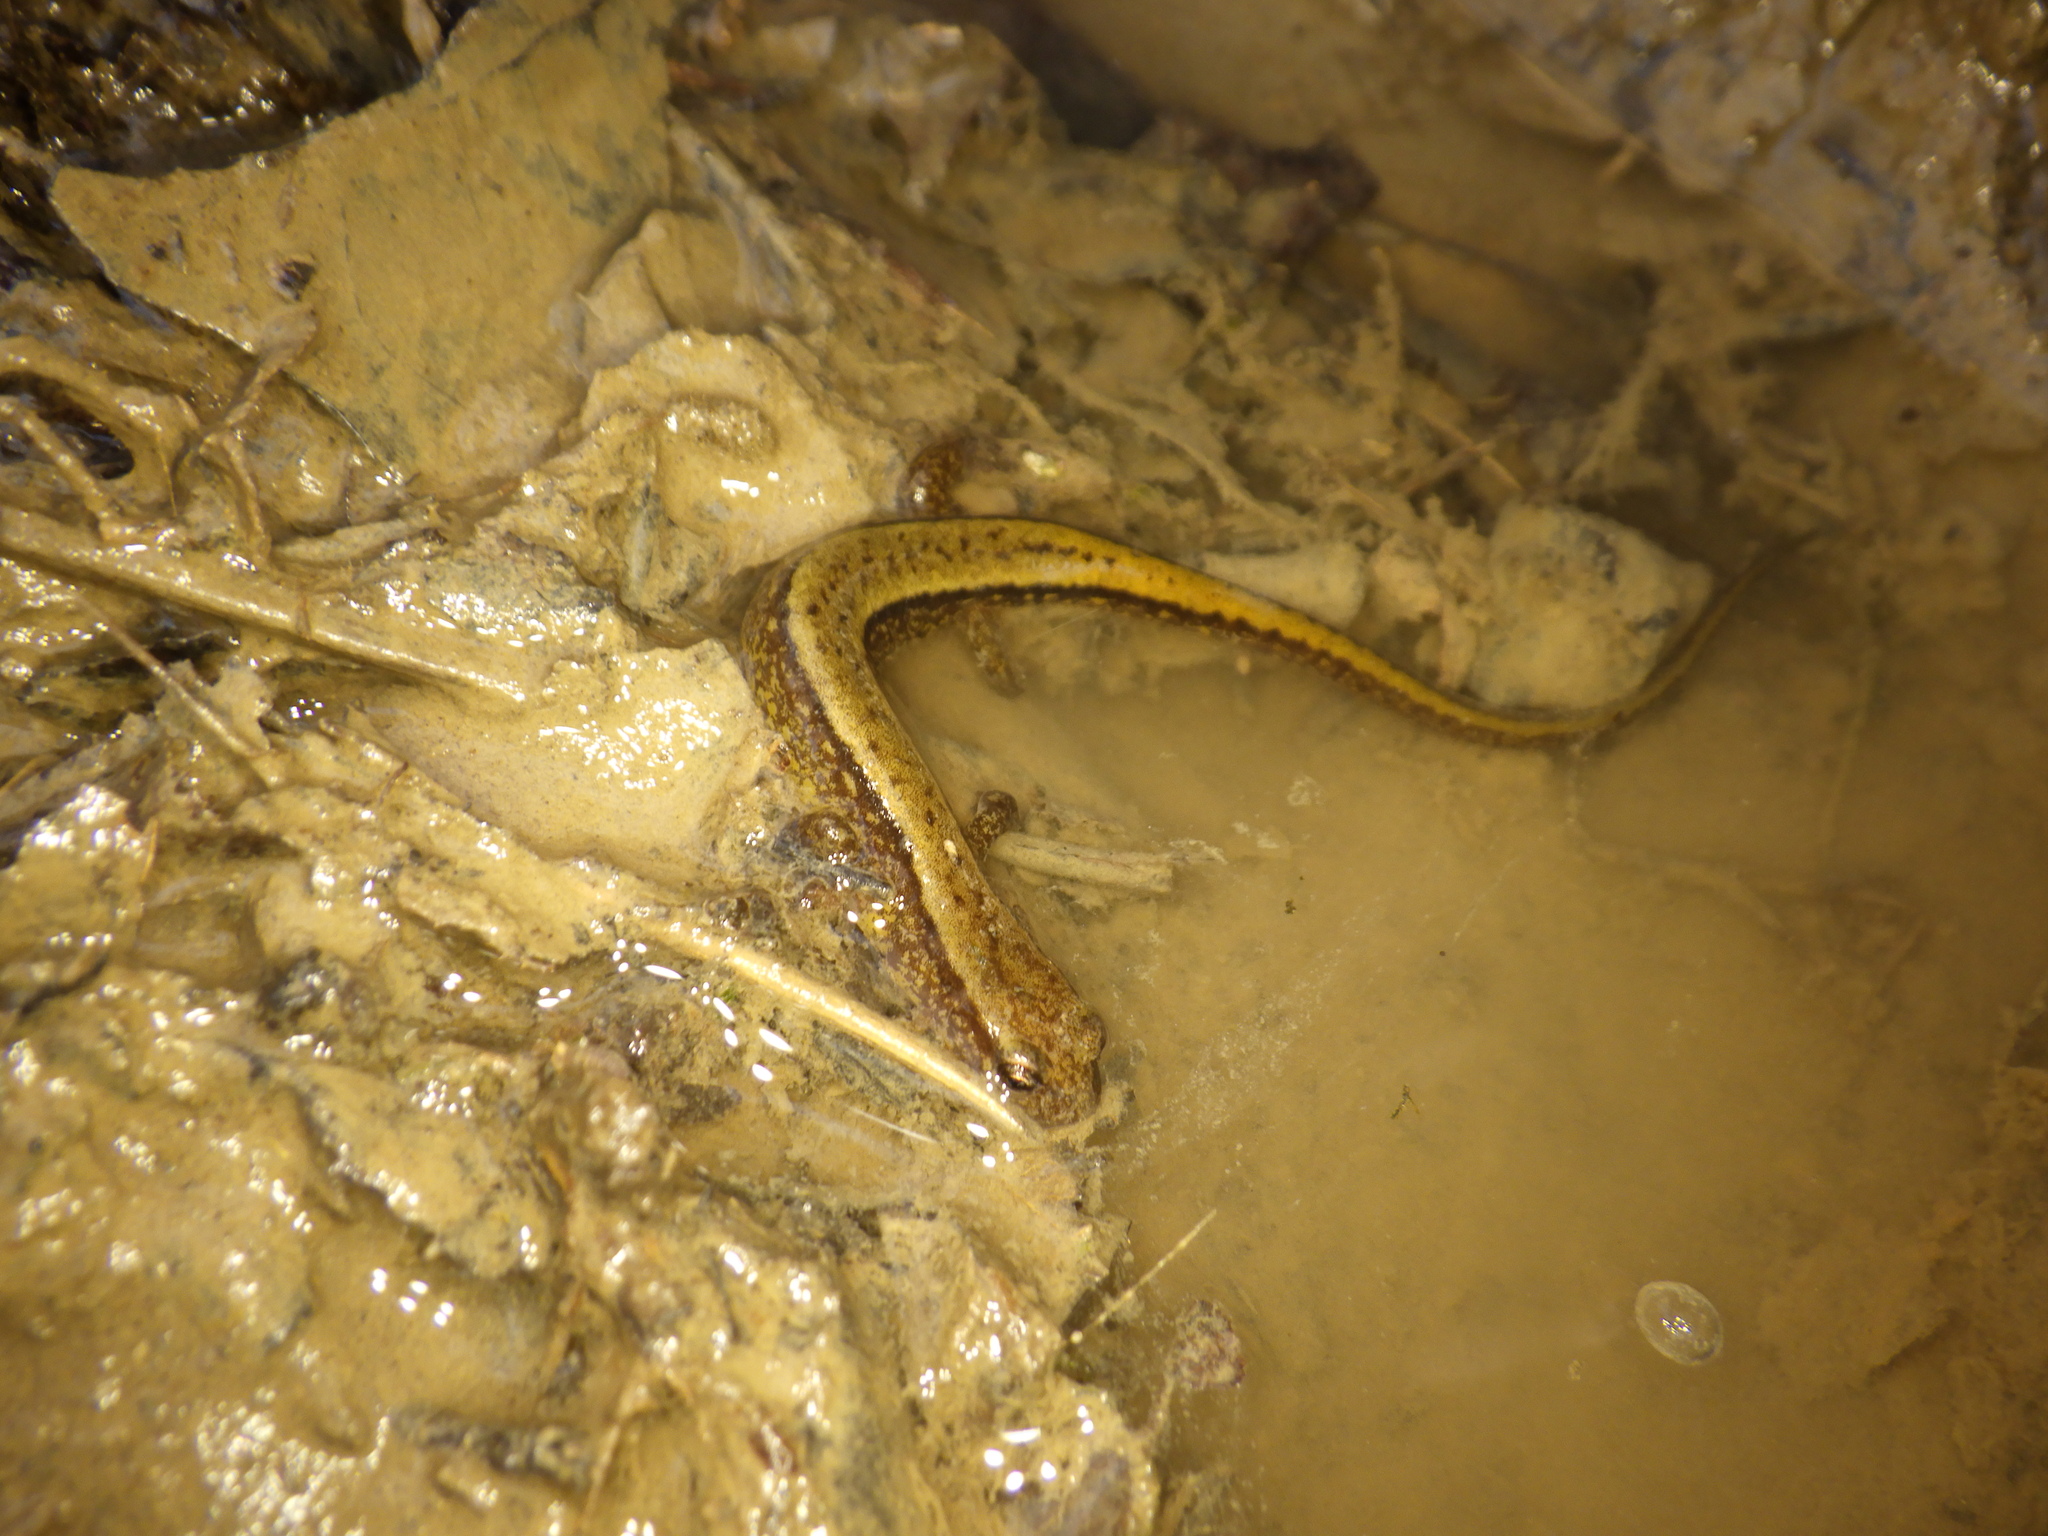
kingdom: Animalia
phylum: Chordata
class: Amphibia
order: Caudata
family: Plethodontidae
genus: Eurycea
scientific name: Eurycea cirrigera
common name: Southern two-lined salamander
